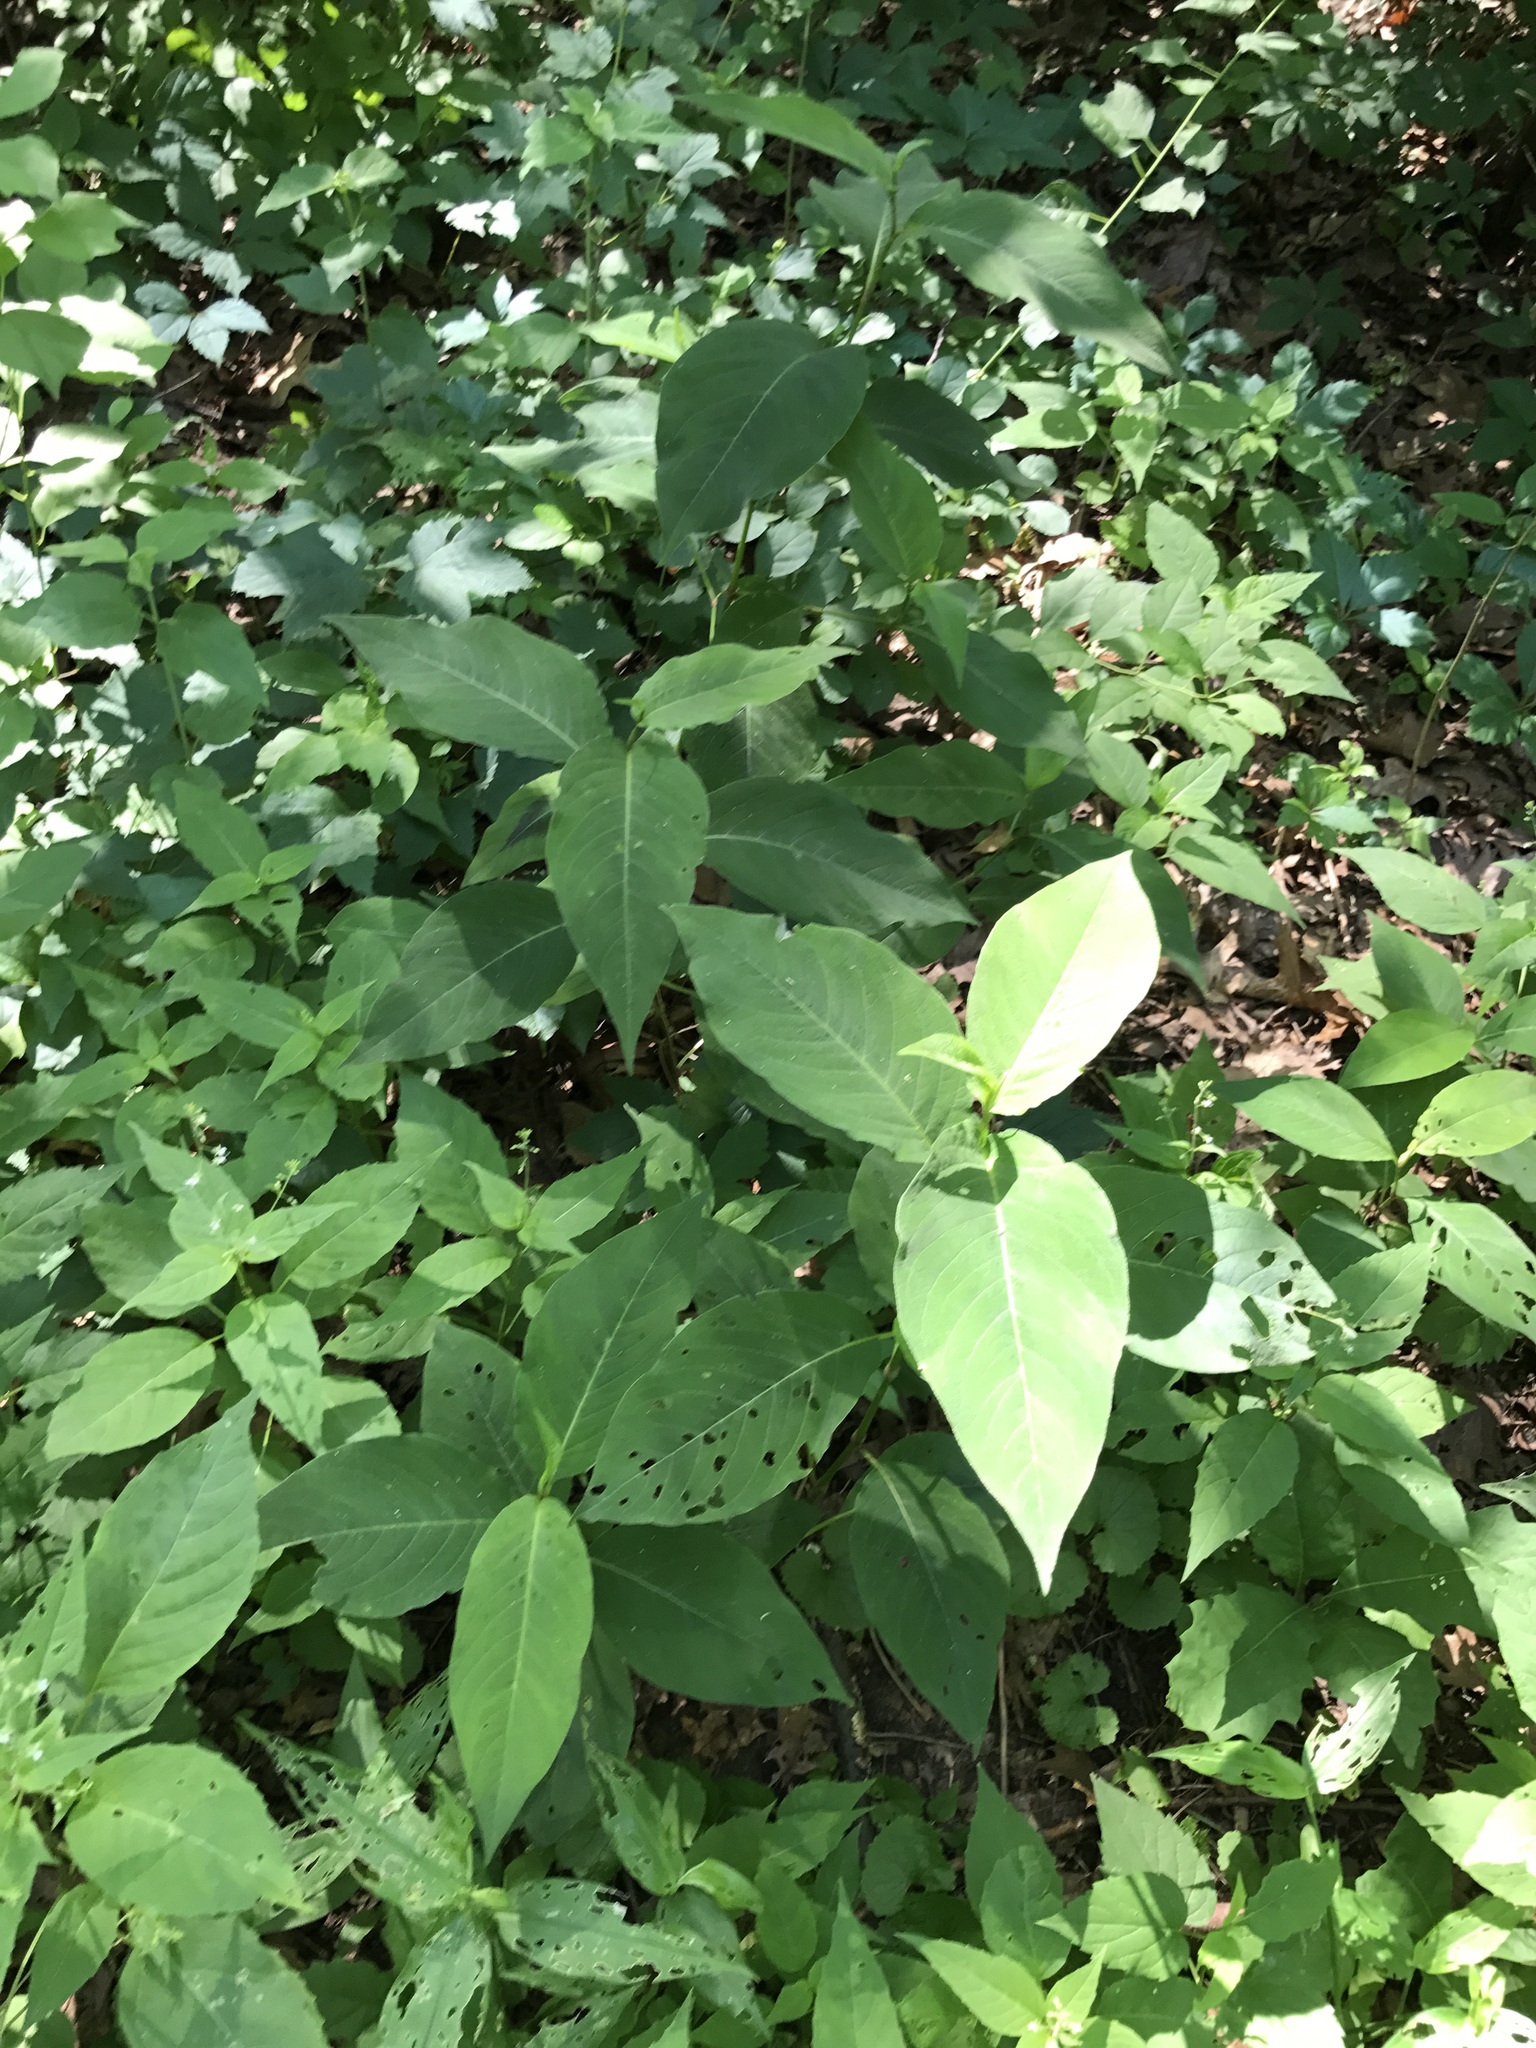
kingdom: Plantae
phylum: Tracheophyta
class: Magnoliopsida
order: Caryophyllales
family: Polygonaceae
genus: Persicaria
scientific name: Persicaria virginiana
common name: Jumpseed
